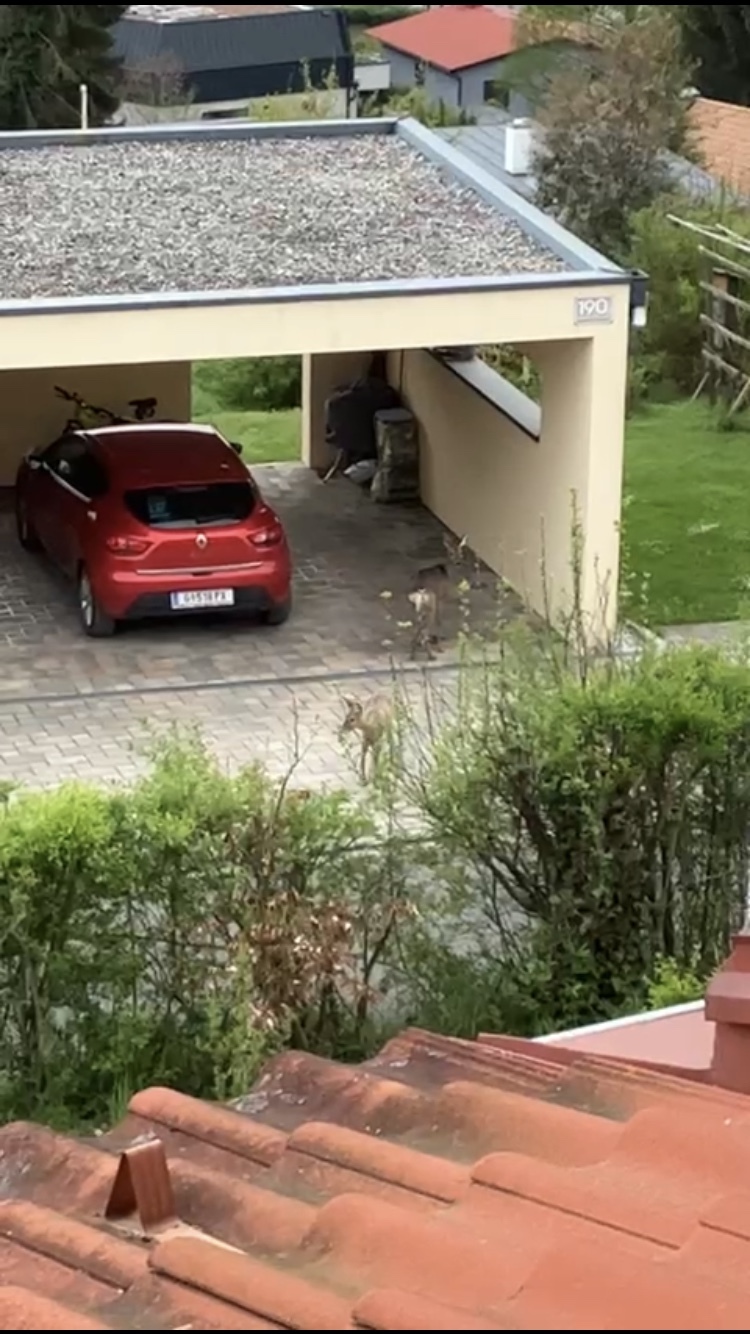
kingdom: Animalia
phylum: Chordata
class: Mammalia
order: Artiodactyla
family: Cervidae
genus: Capreolus
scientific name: Capreolus capreolus
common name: Western roe deer
